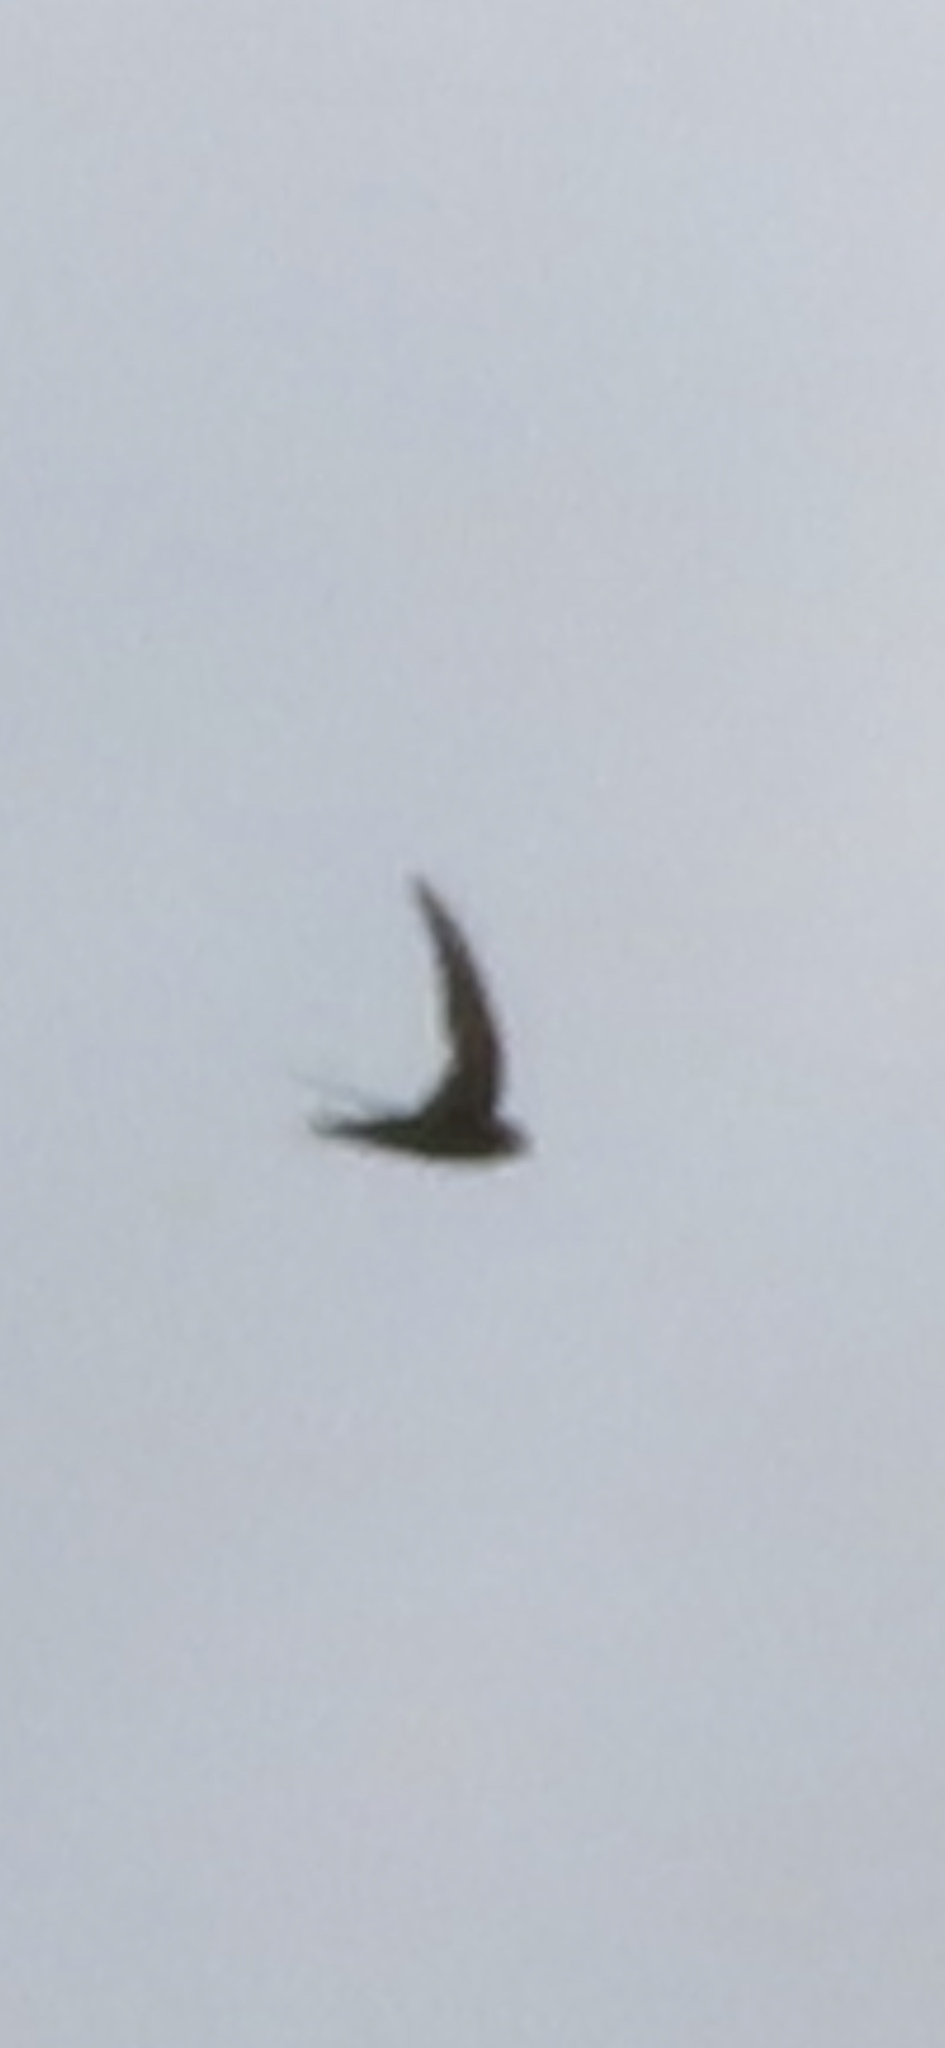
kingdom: Animalia
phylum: Chordata
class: Aves
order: Apodiformes
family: Apodidae
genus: Apus
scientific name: Apus apus
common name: Common swift
